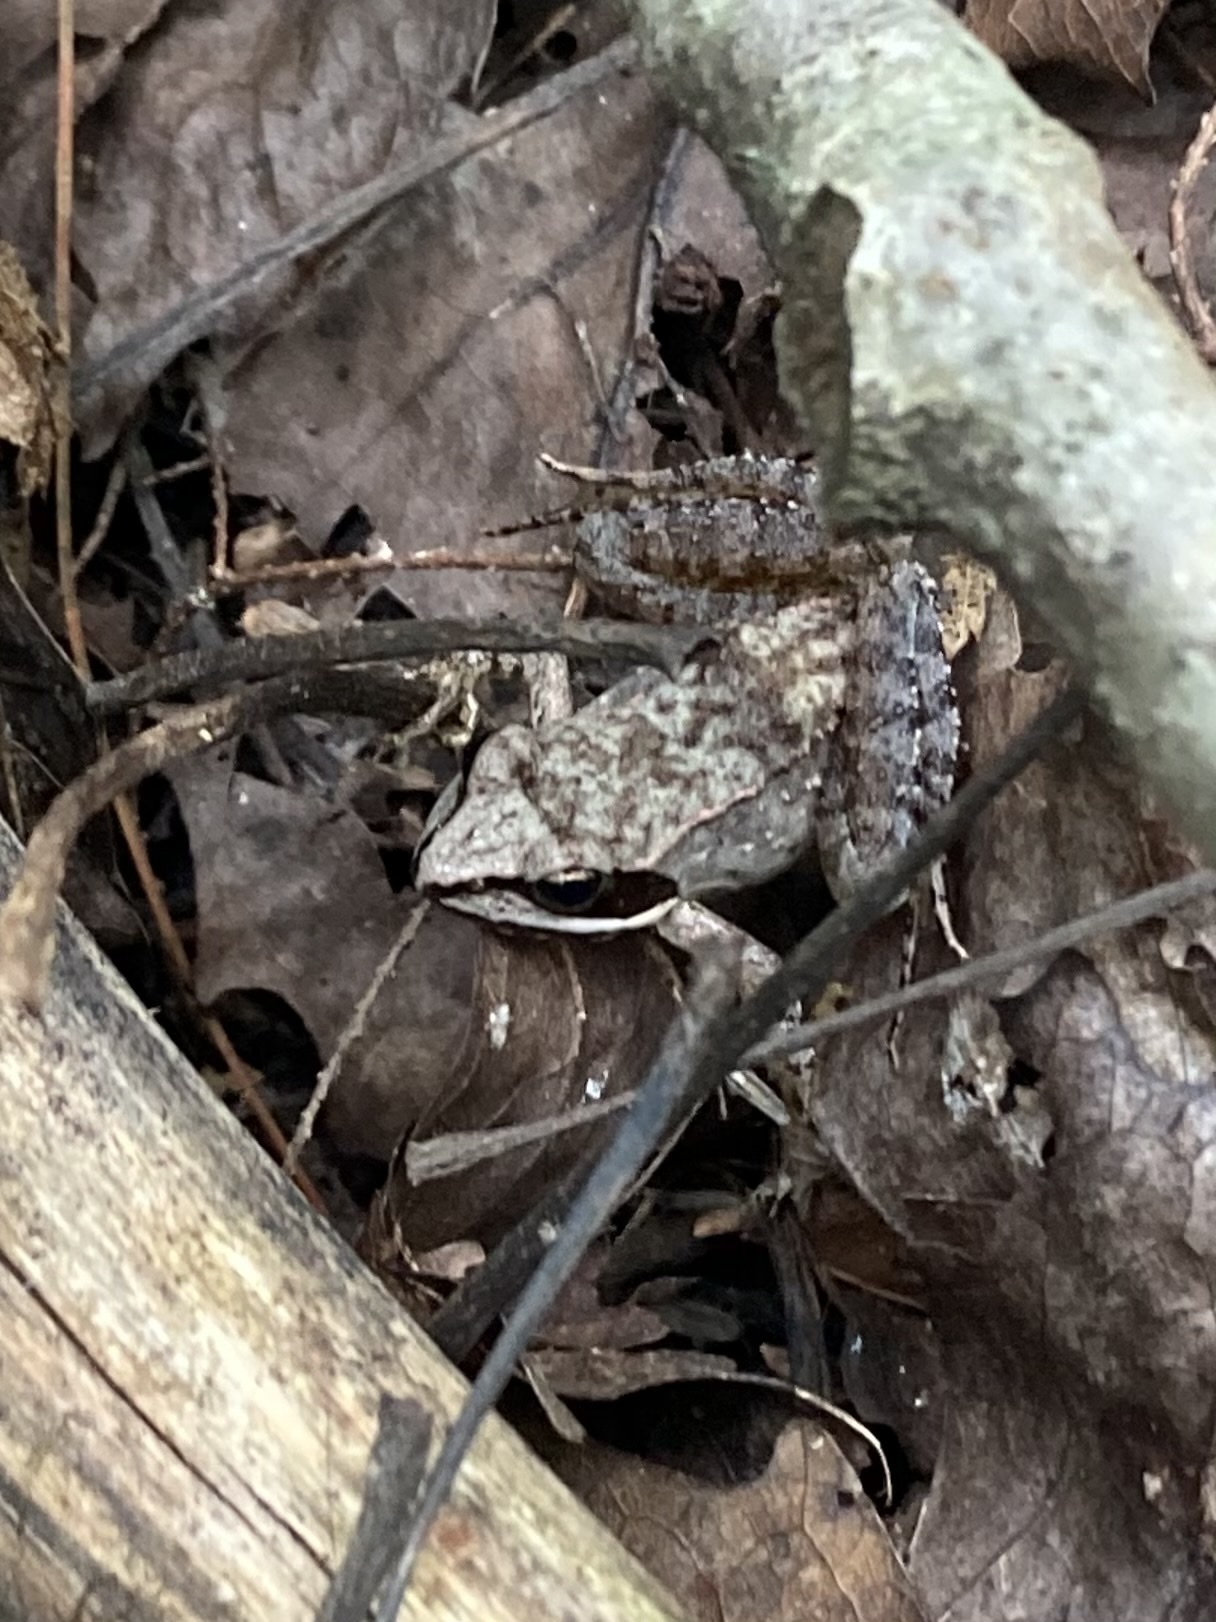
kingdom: Animalia
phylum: Chordata
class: Amphibia
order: Anura
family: Ranidae
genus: Lithobates
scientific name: Lithobates sylvaticus
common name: Wood frog
